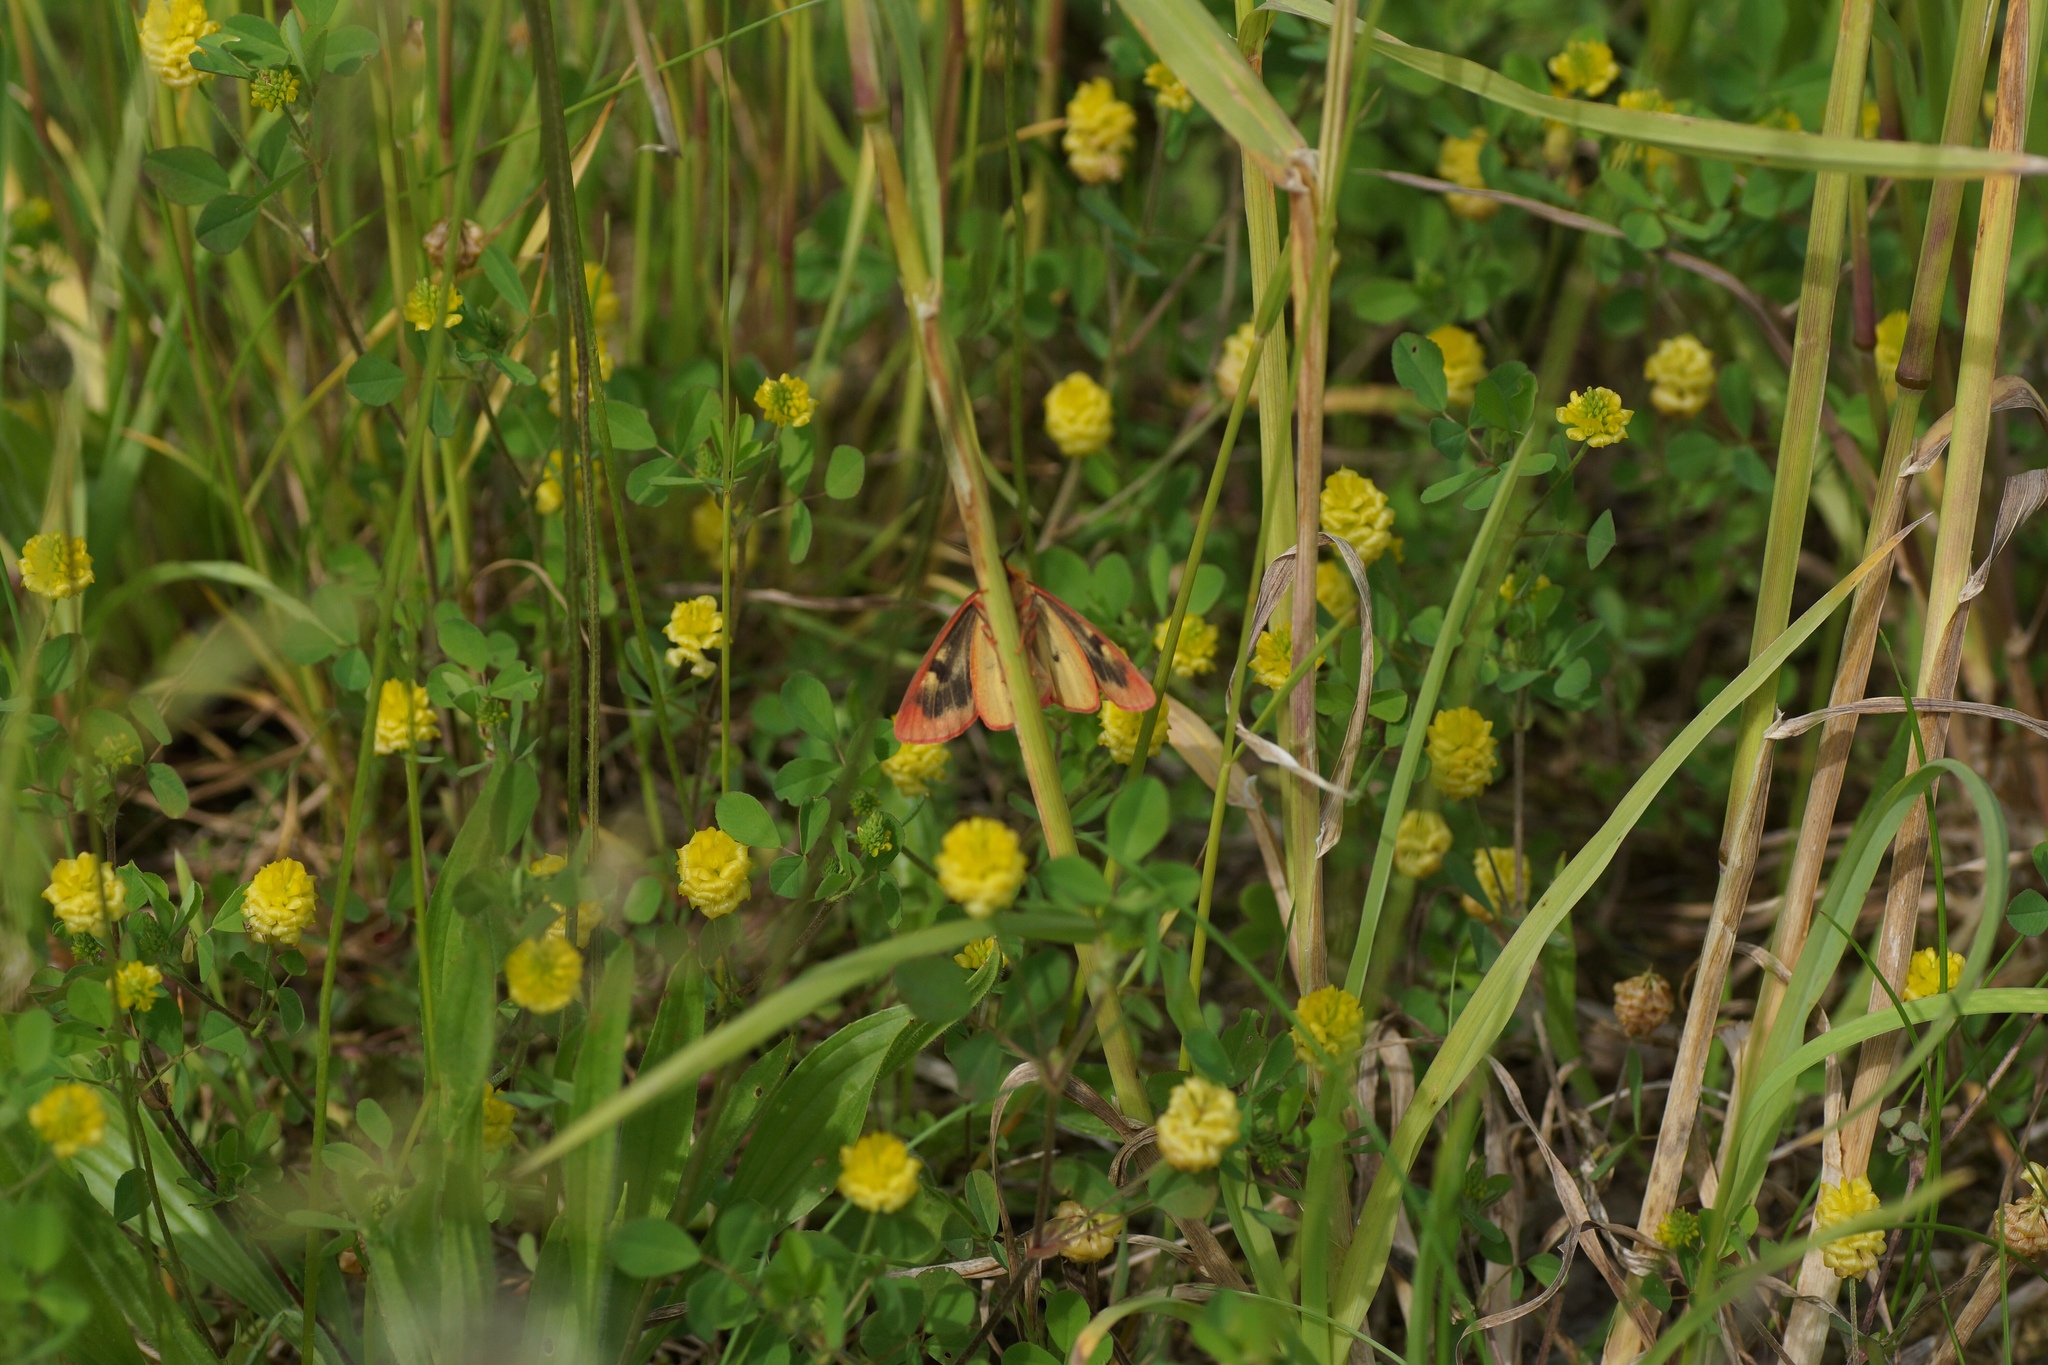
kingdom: Animalia
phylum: Arthropoda
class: Insecta
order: Lepidoptera
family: Erebidae
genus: Diacrisia
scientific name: Diacrisia sannio
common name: Clouded buff
